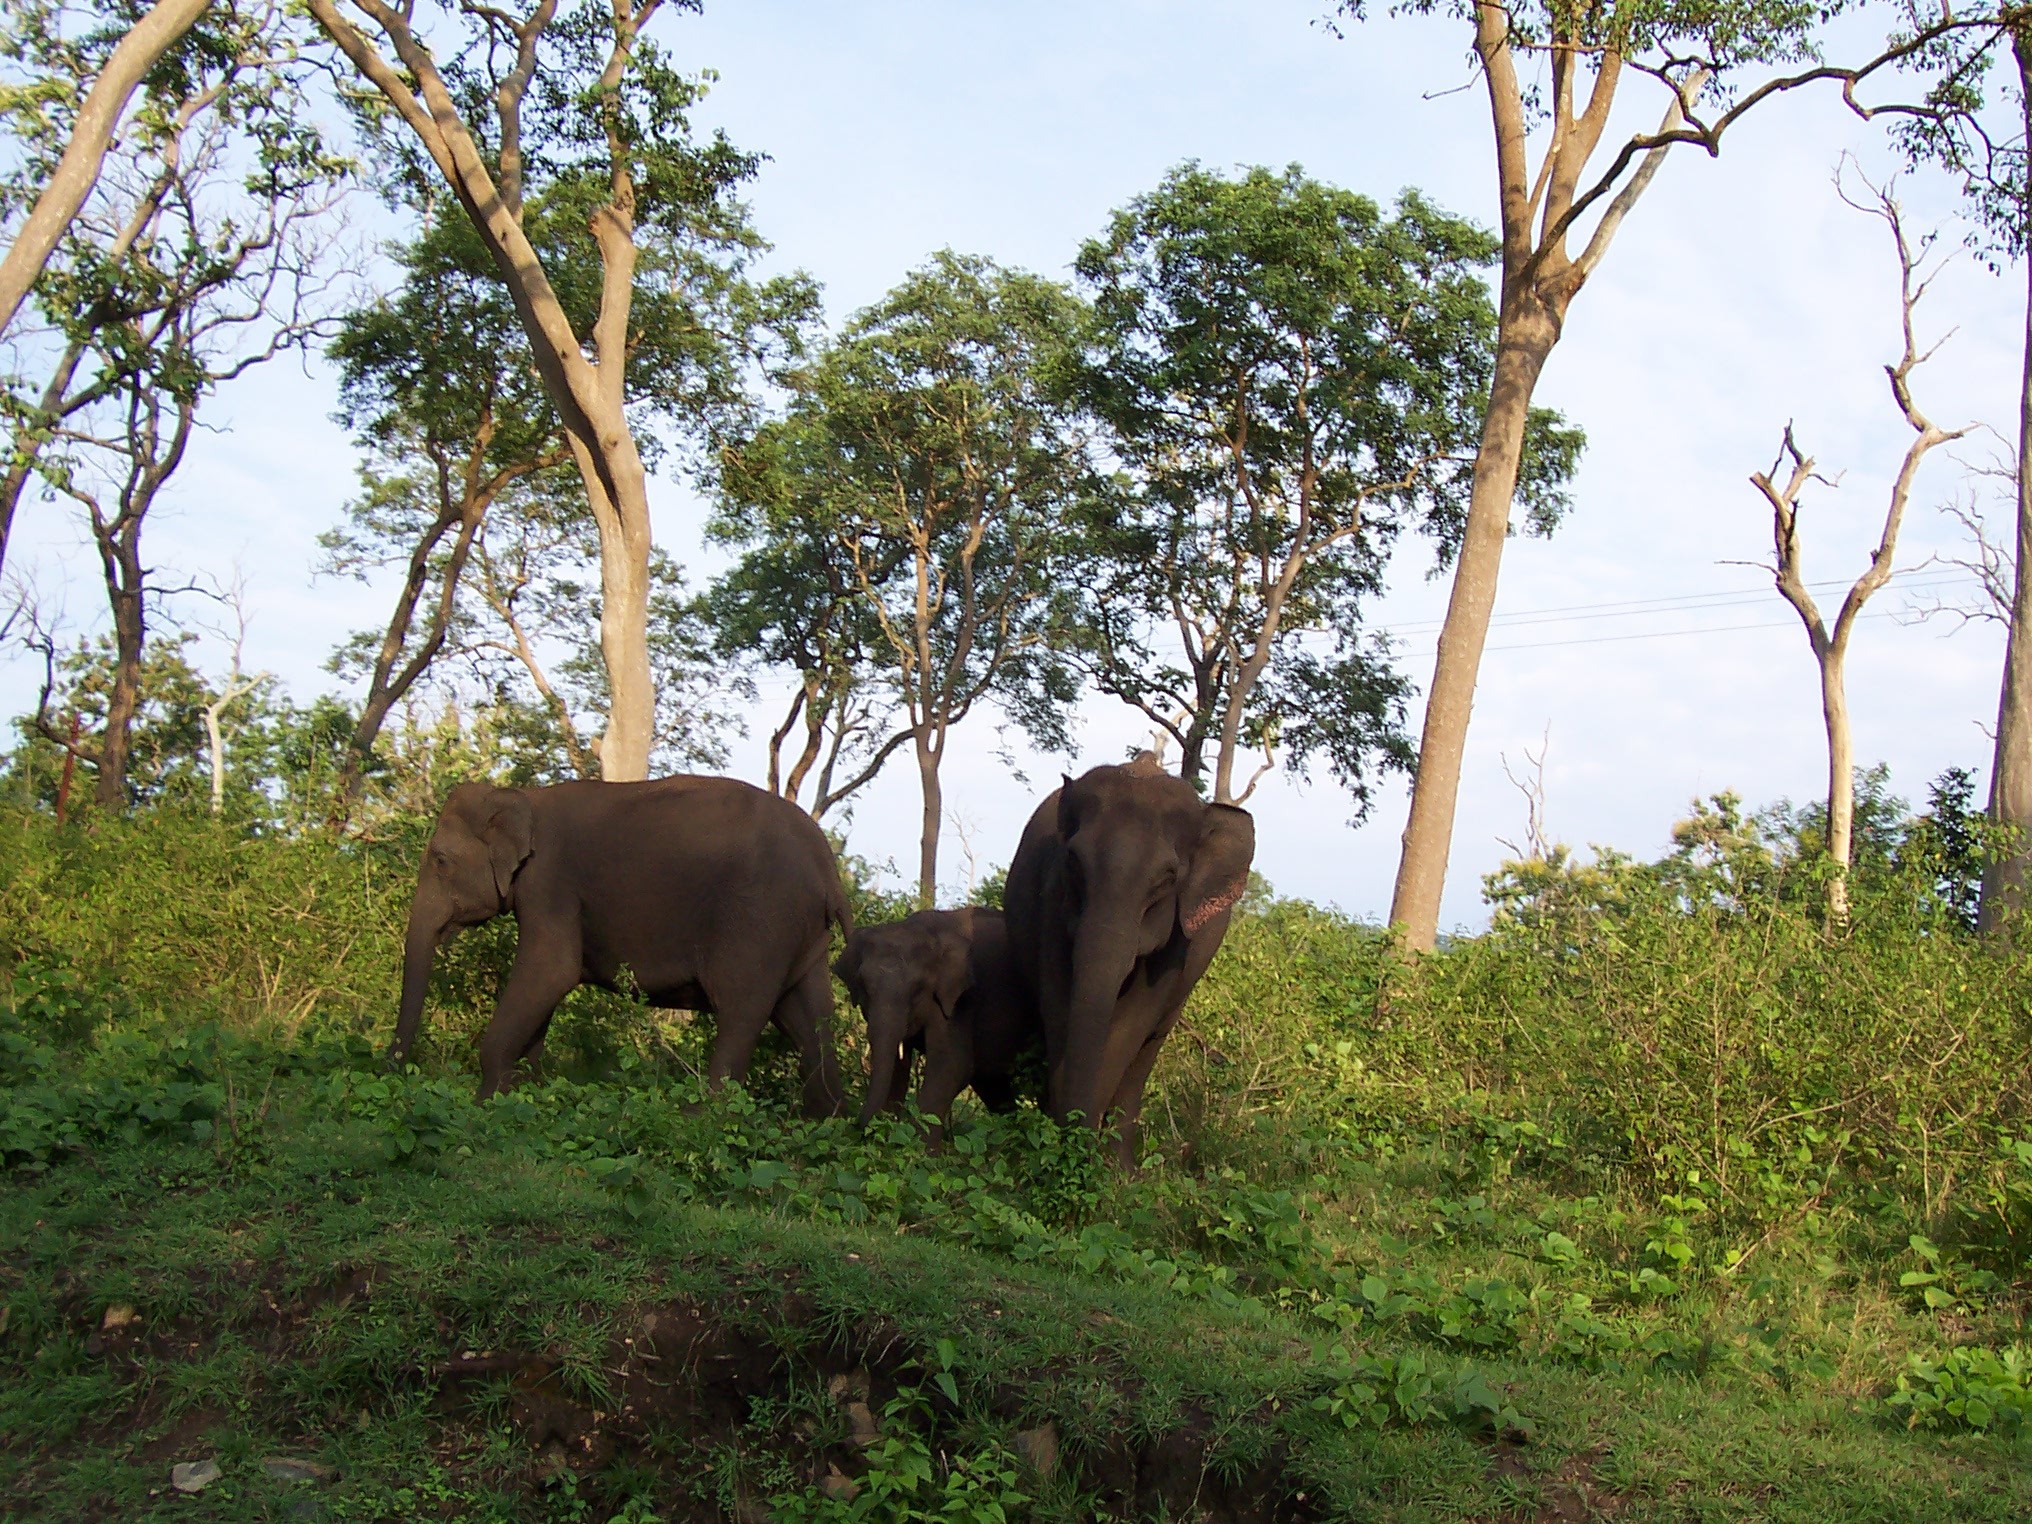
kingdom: Animalia
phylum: Chordata
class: Mammalia
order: Proboscidea
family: Elephantidae
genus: Elephas
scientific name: Elephas maximus
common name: Asian elephant
